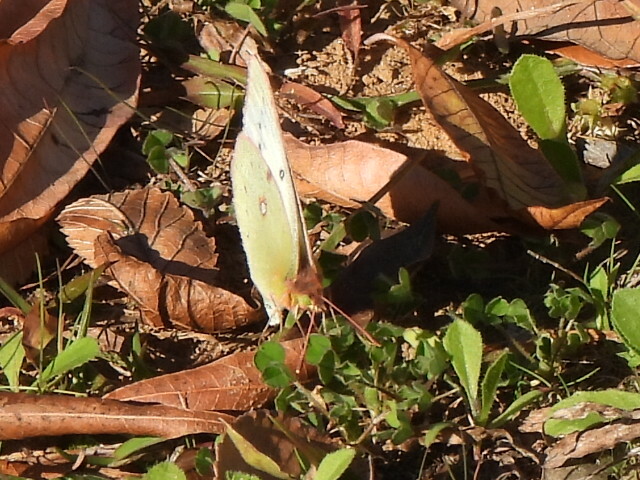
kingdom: Animalia
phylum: Arthropoda
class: Insecta
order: Lepidoptera
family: Pieridae
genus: Colias
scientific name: Colias eurytheme
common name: Alfalfa butterfly
